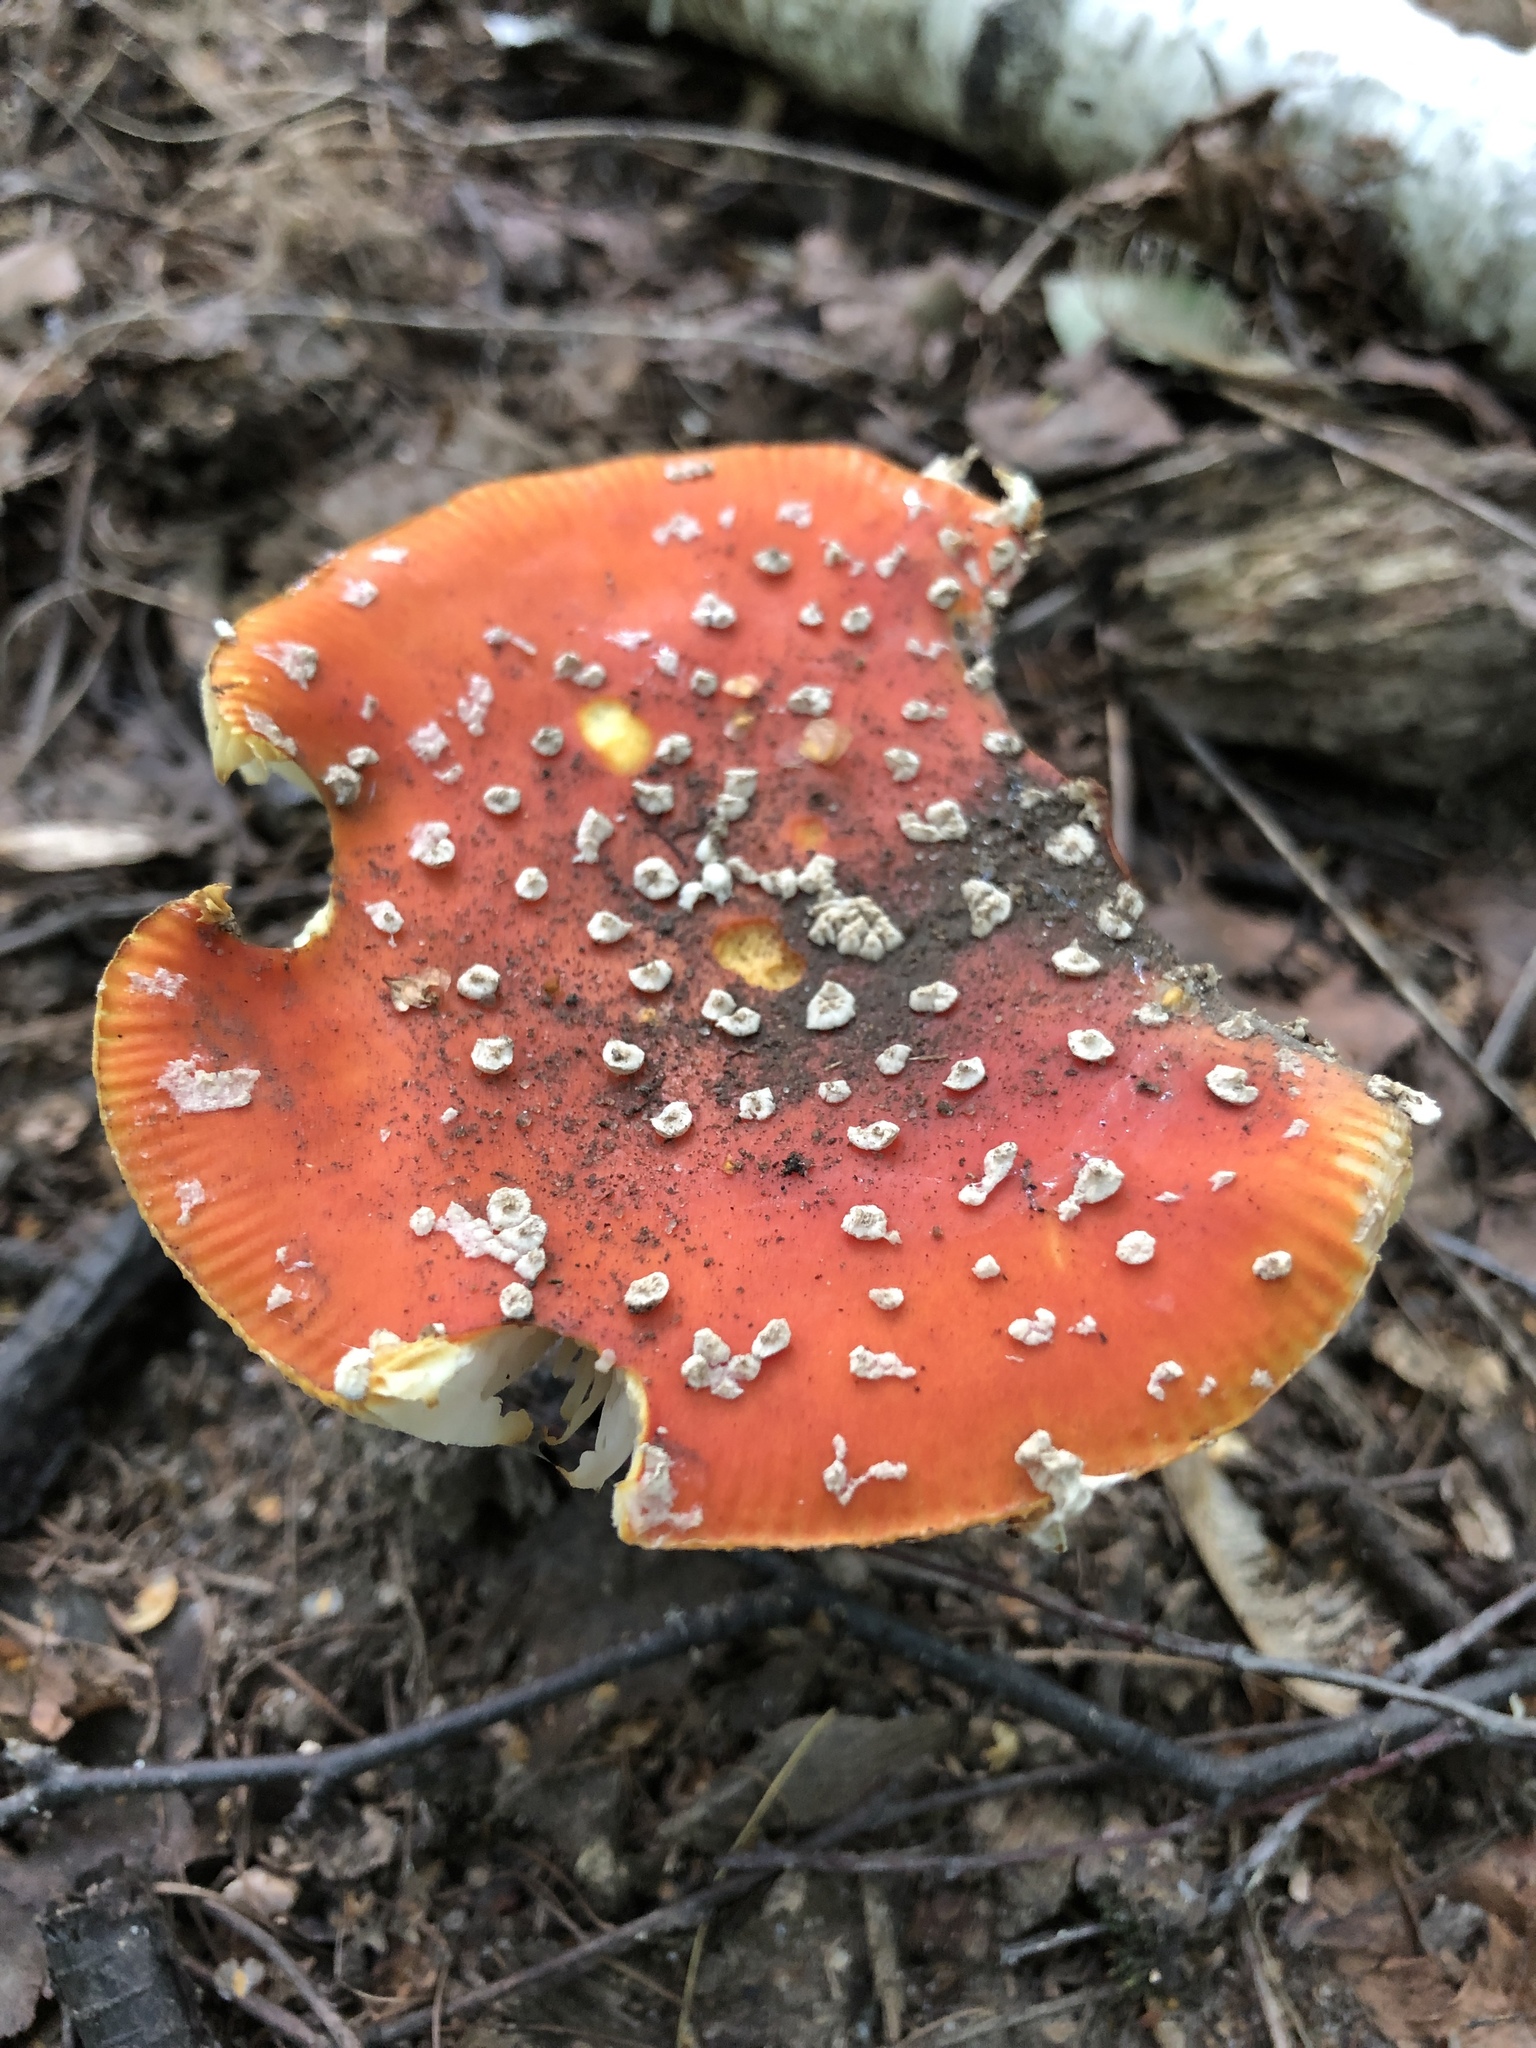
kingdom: Fungi
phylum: Basidiomycota
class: Agaricomycetes
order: Agaricales
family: Amanitaceae
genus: Amanita
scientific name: Amanita muscaria
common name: Fly agaric
